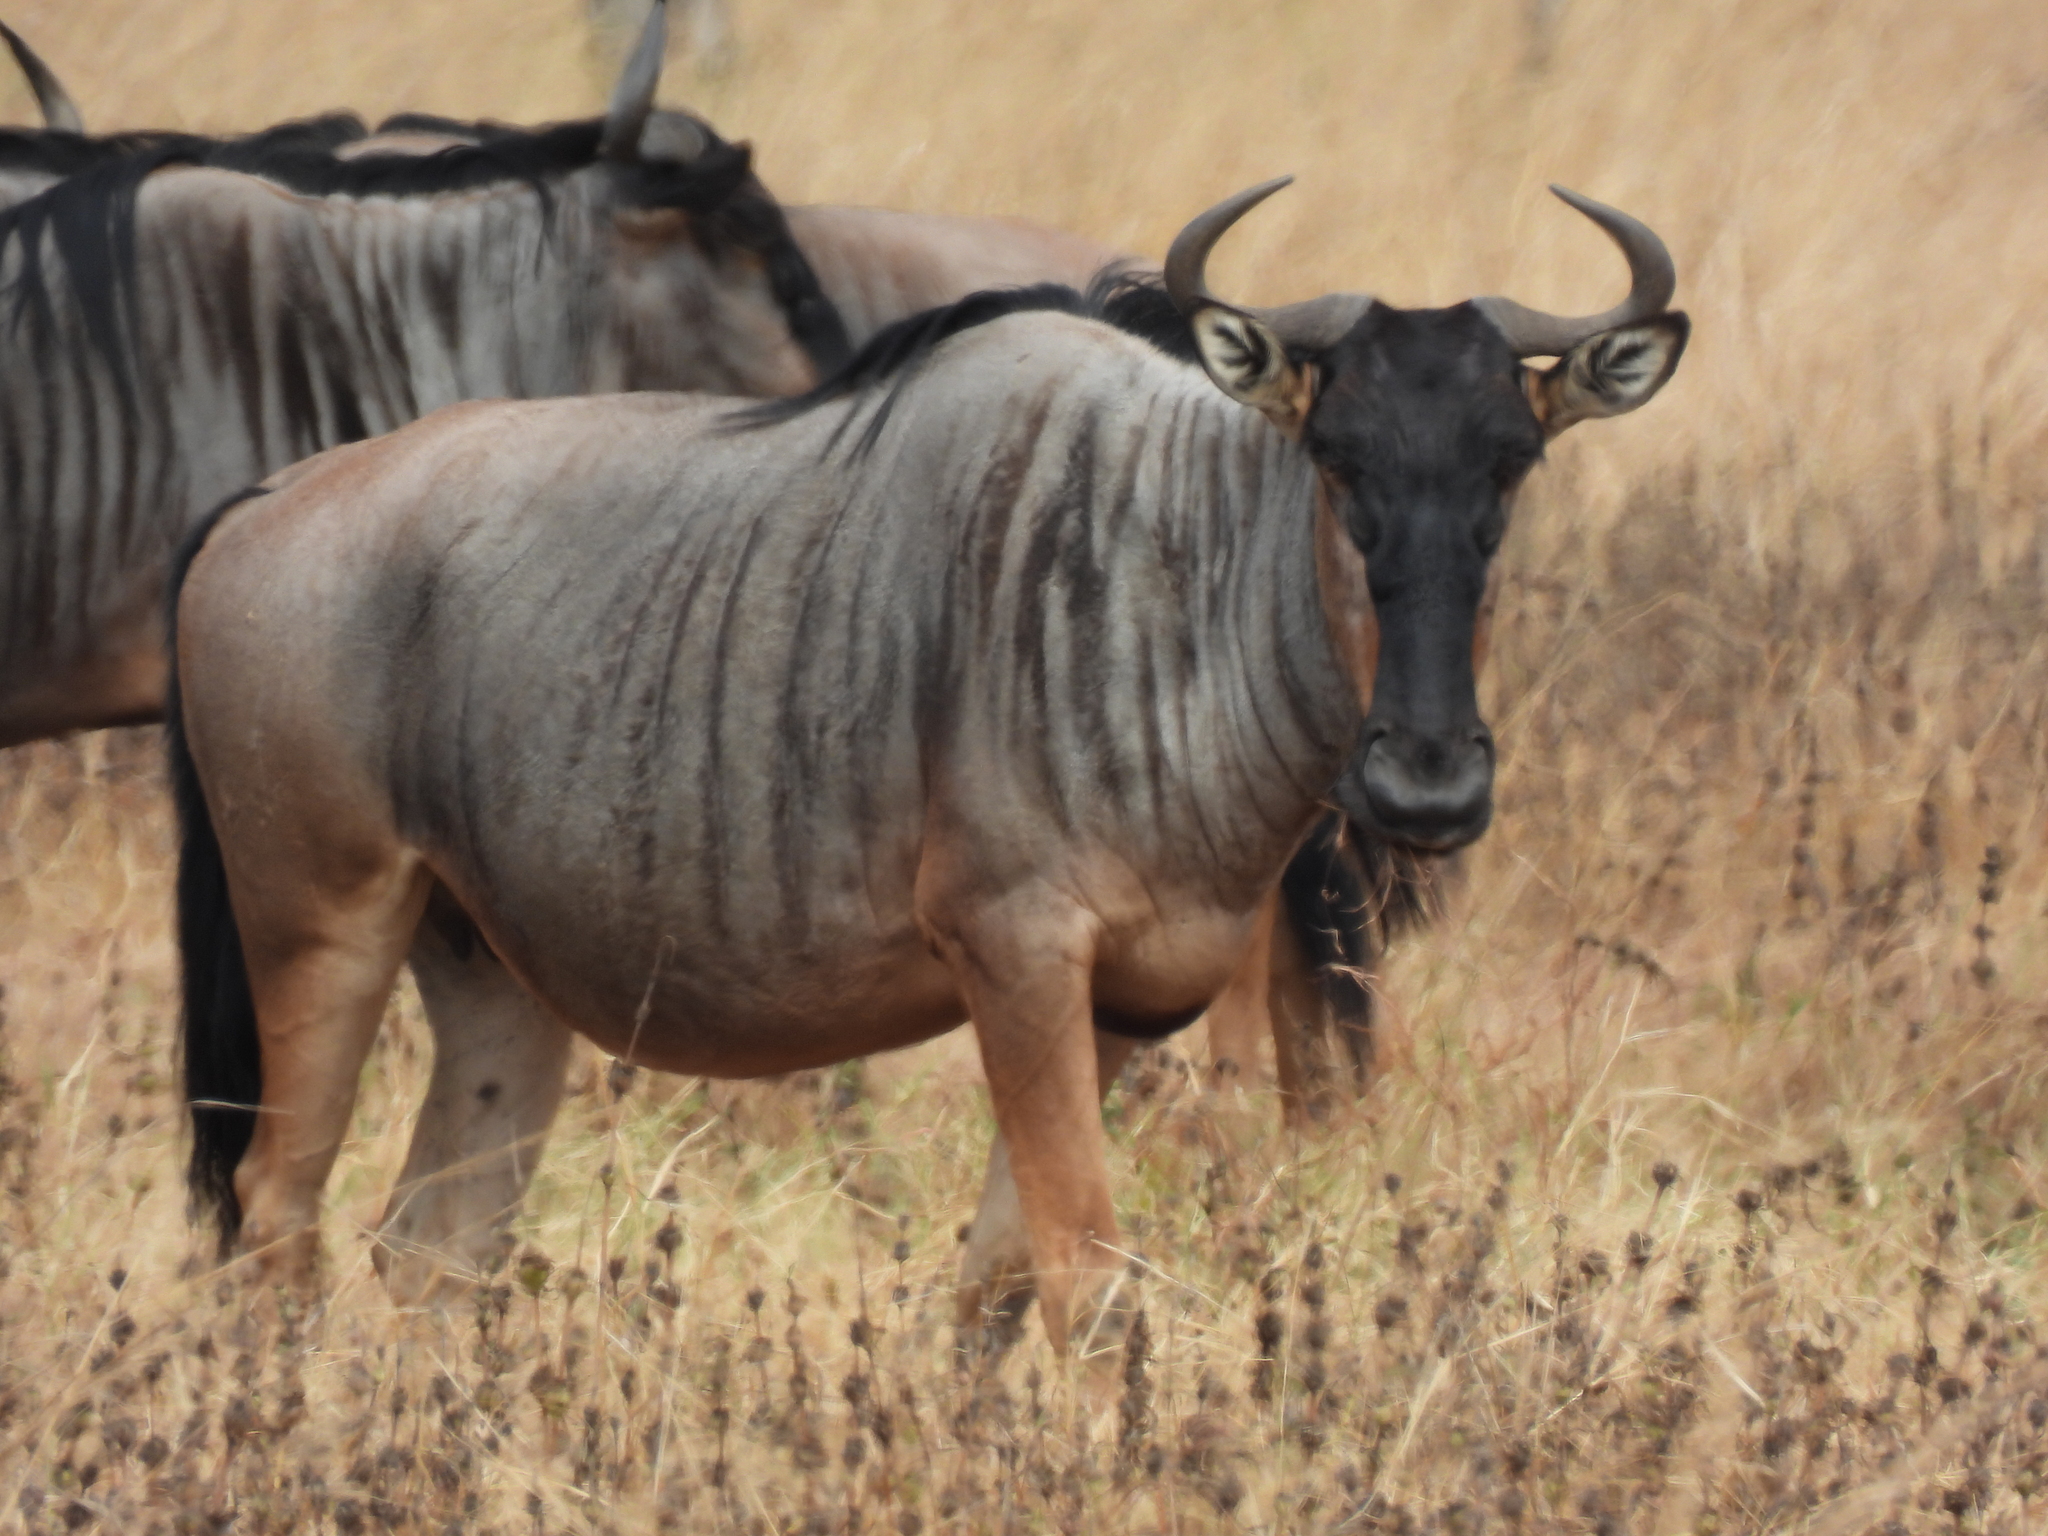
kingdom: Animalia
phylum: Chordata
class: Mammalia
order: Artiodactyla
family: Bovidae
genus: Connochaetes
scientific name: Connochaetes taurinus
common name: Blue wildebeest
